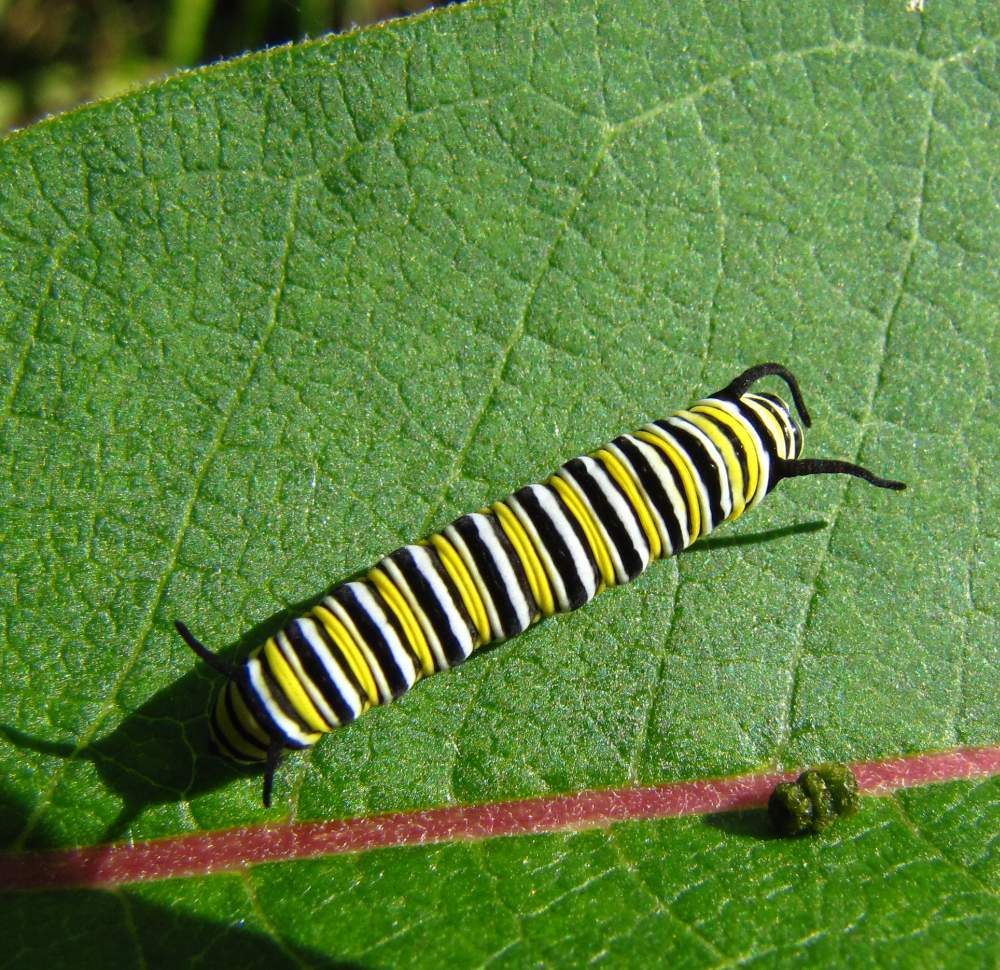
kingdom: Animalia
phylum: Arthropoda
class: Insecta
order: Lepidoptera
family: Nymphalidae
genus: Danaus
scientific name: Danaus plexippus
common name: Monarch
